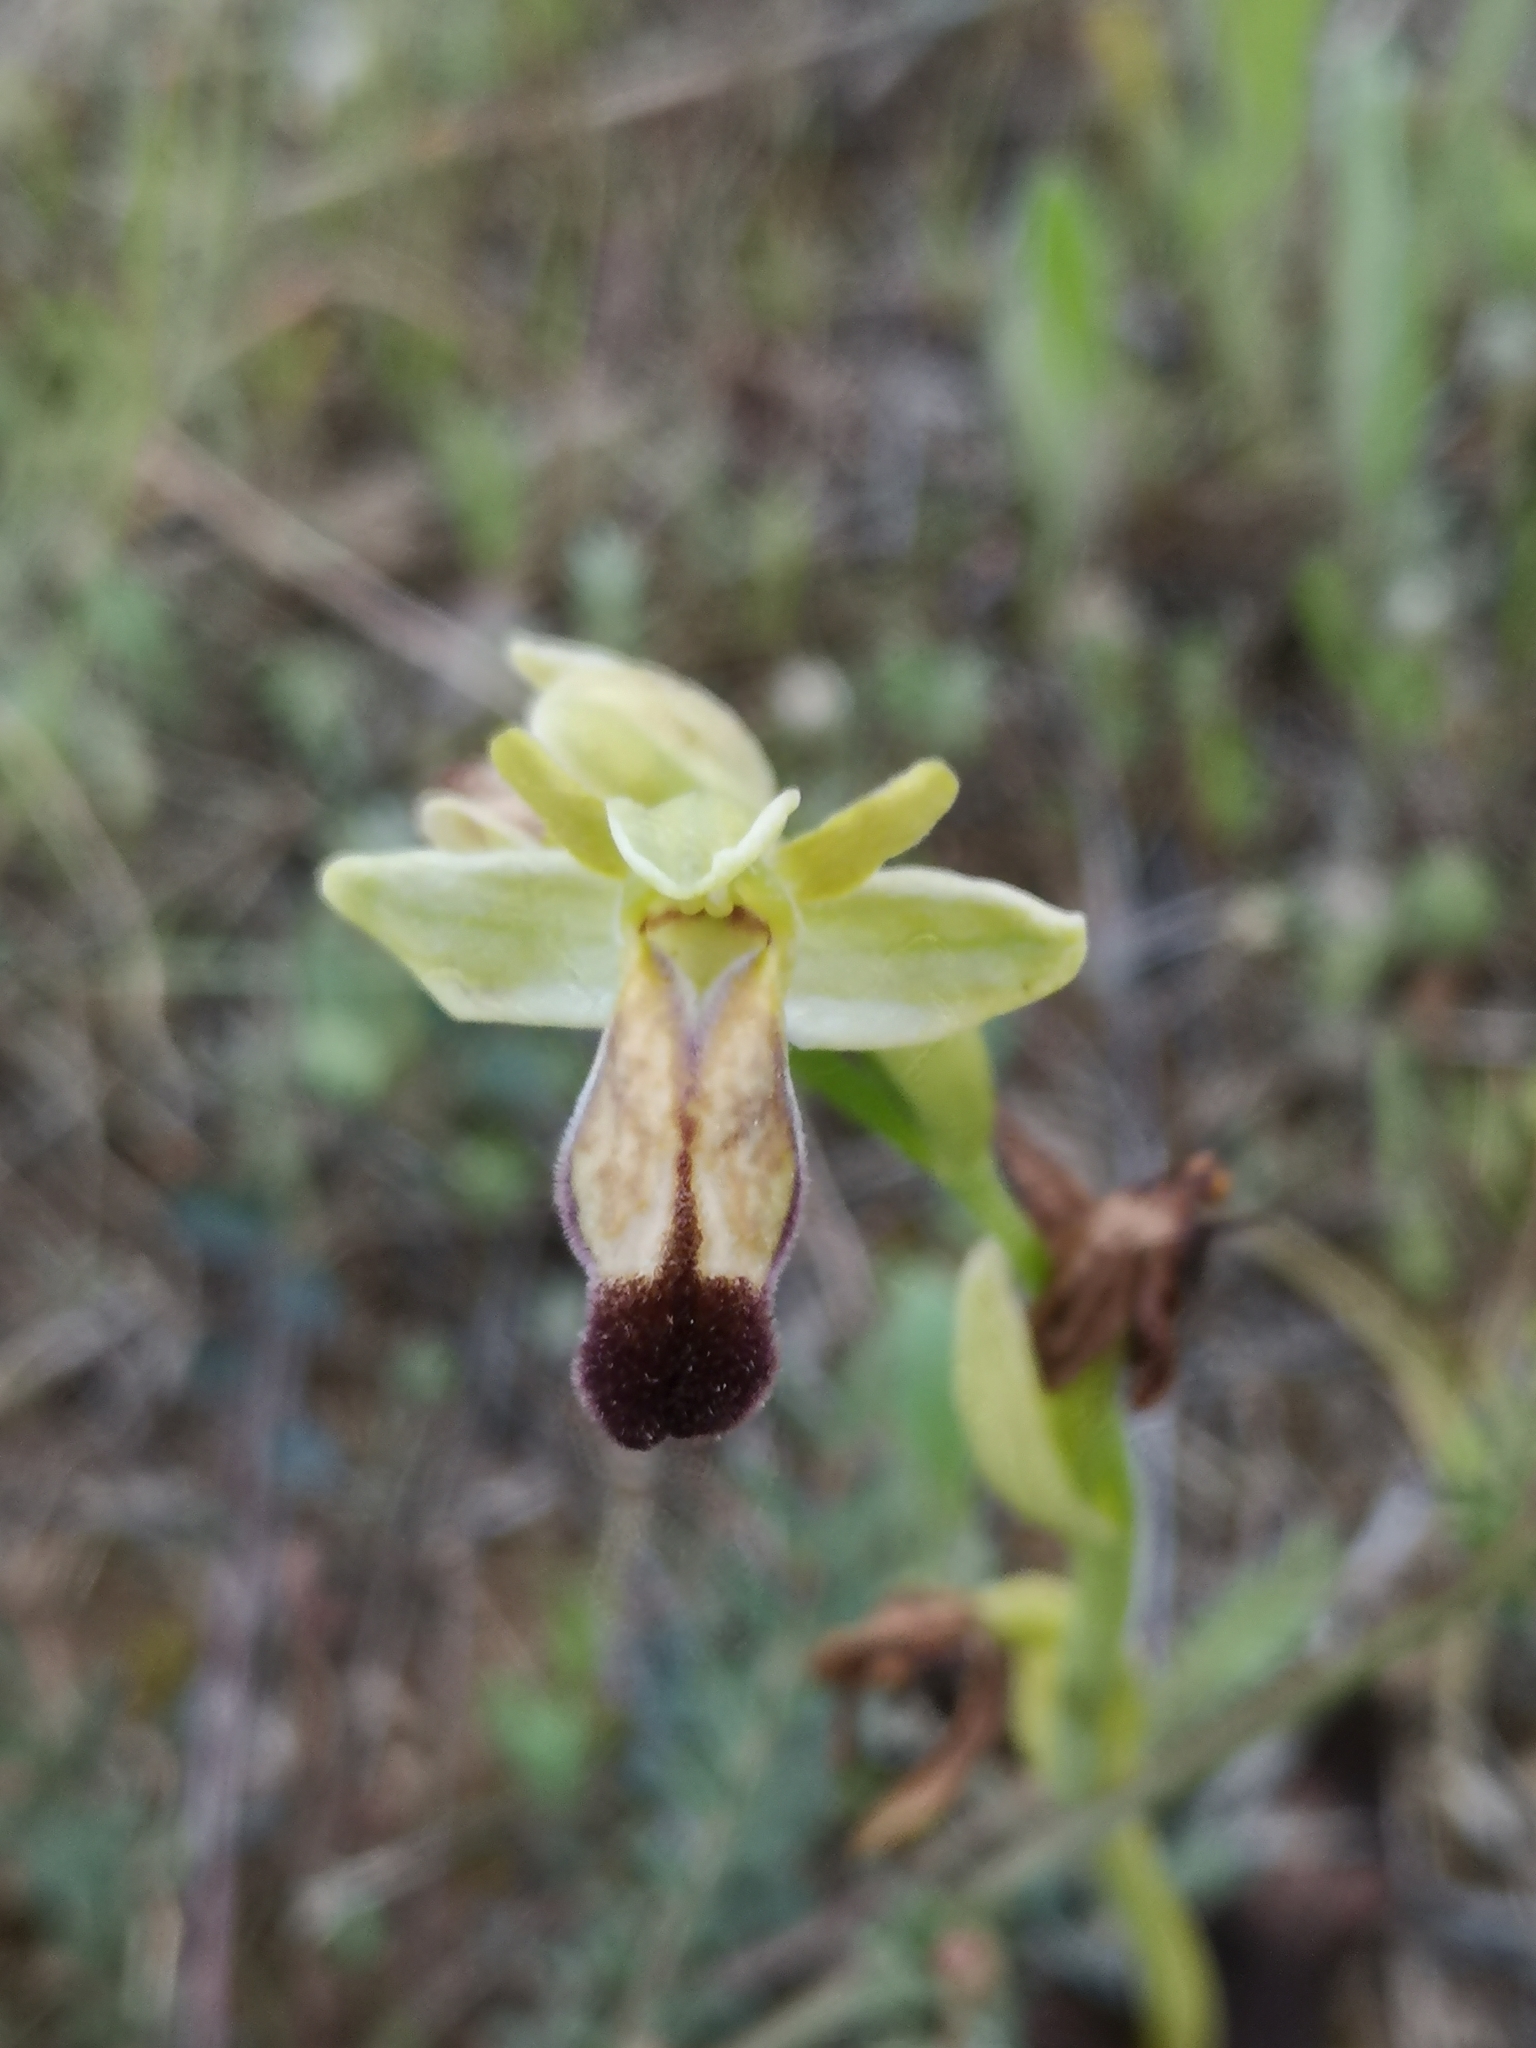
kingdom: Plantae
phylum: Tracheophyta
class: Liliopsida
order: Asparagales
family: Orchidaceae
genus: Ophrys
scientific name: Ophrys fusca
